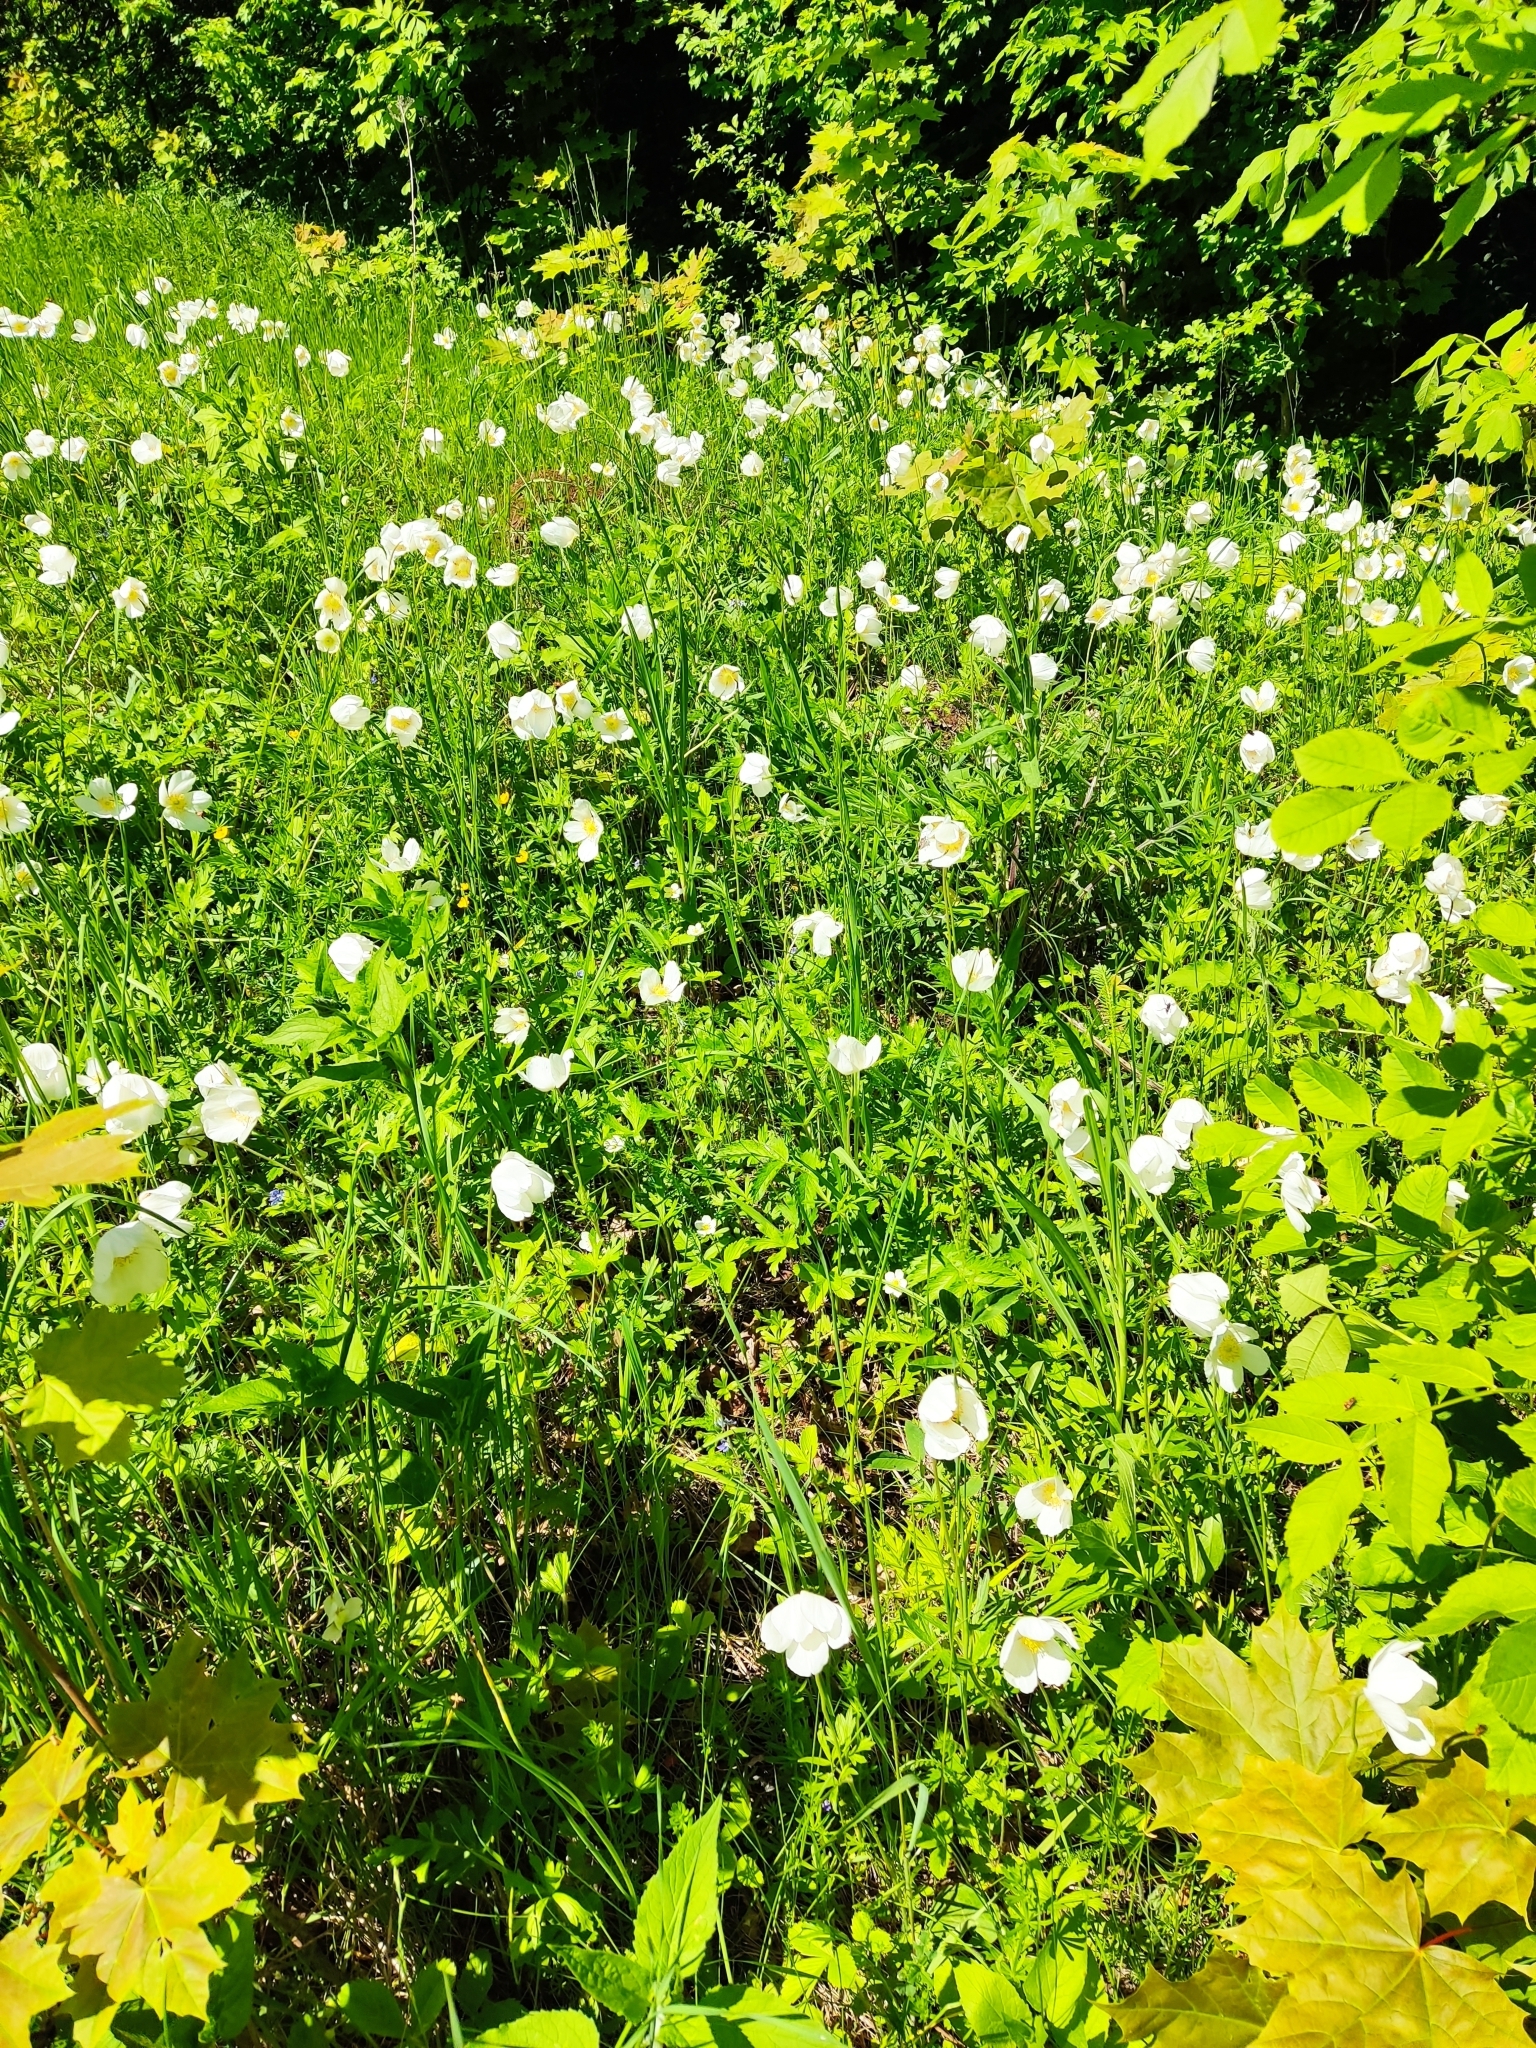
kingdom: Plantae
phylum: Tracheophyta
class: Magnoliopsida
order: Ranunculales
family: Ranunculaceae
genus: Anemone
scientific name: Anemone sylvestris
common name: Snowdrop anemone
